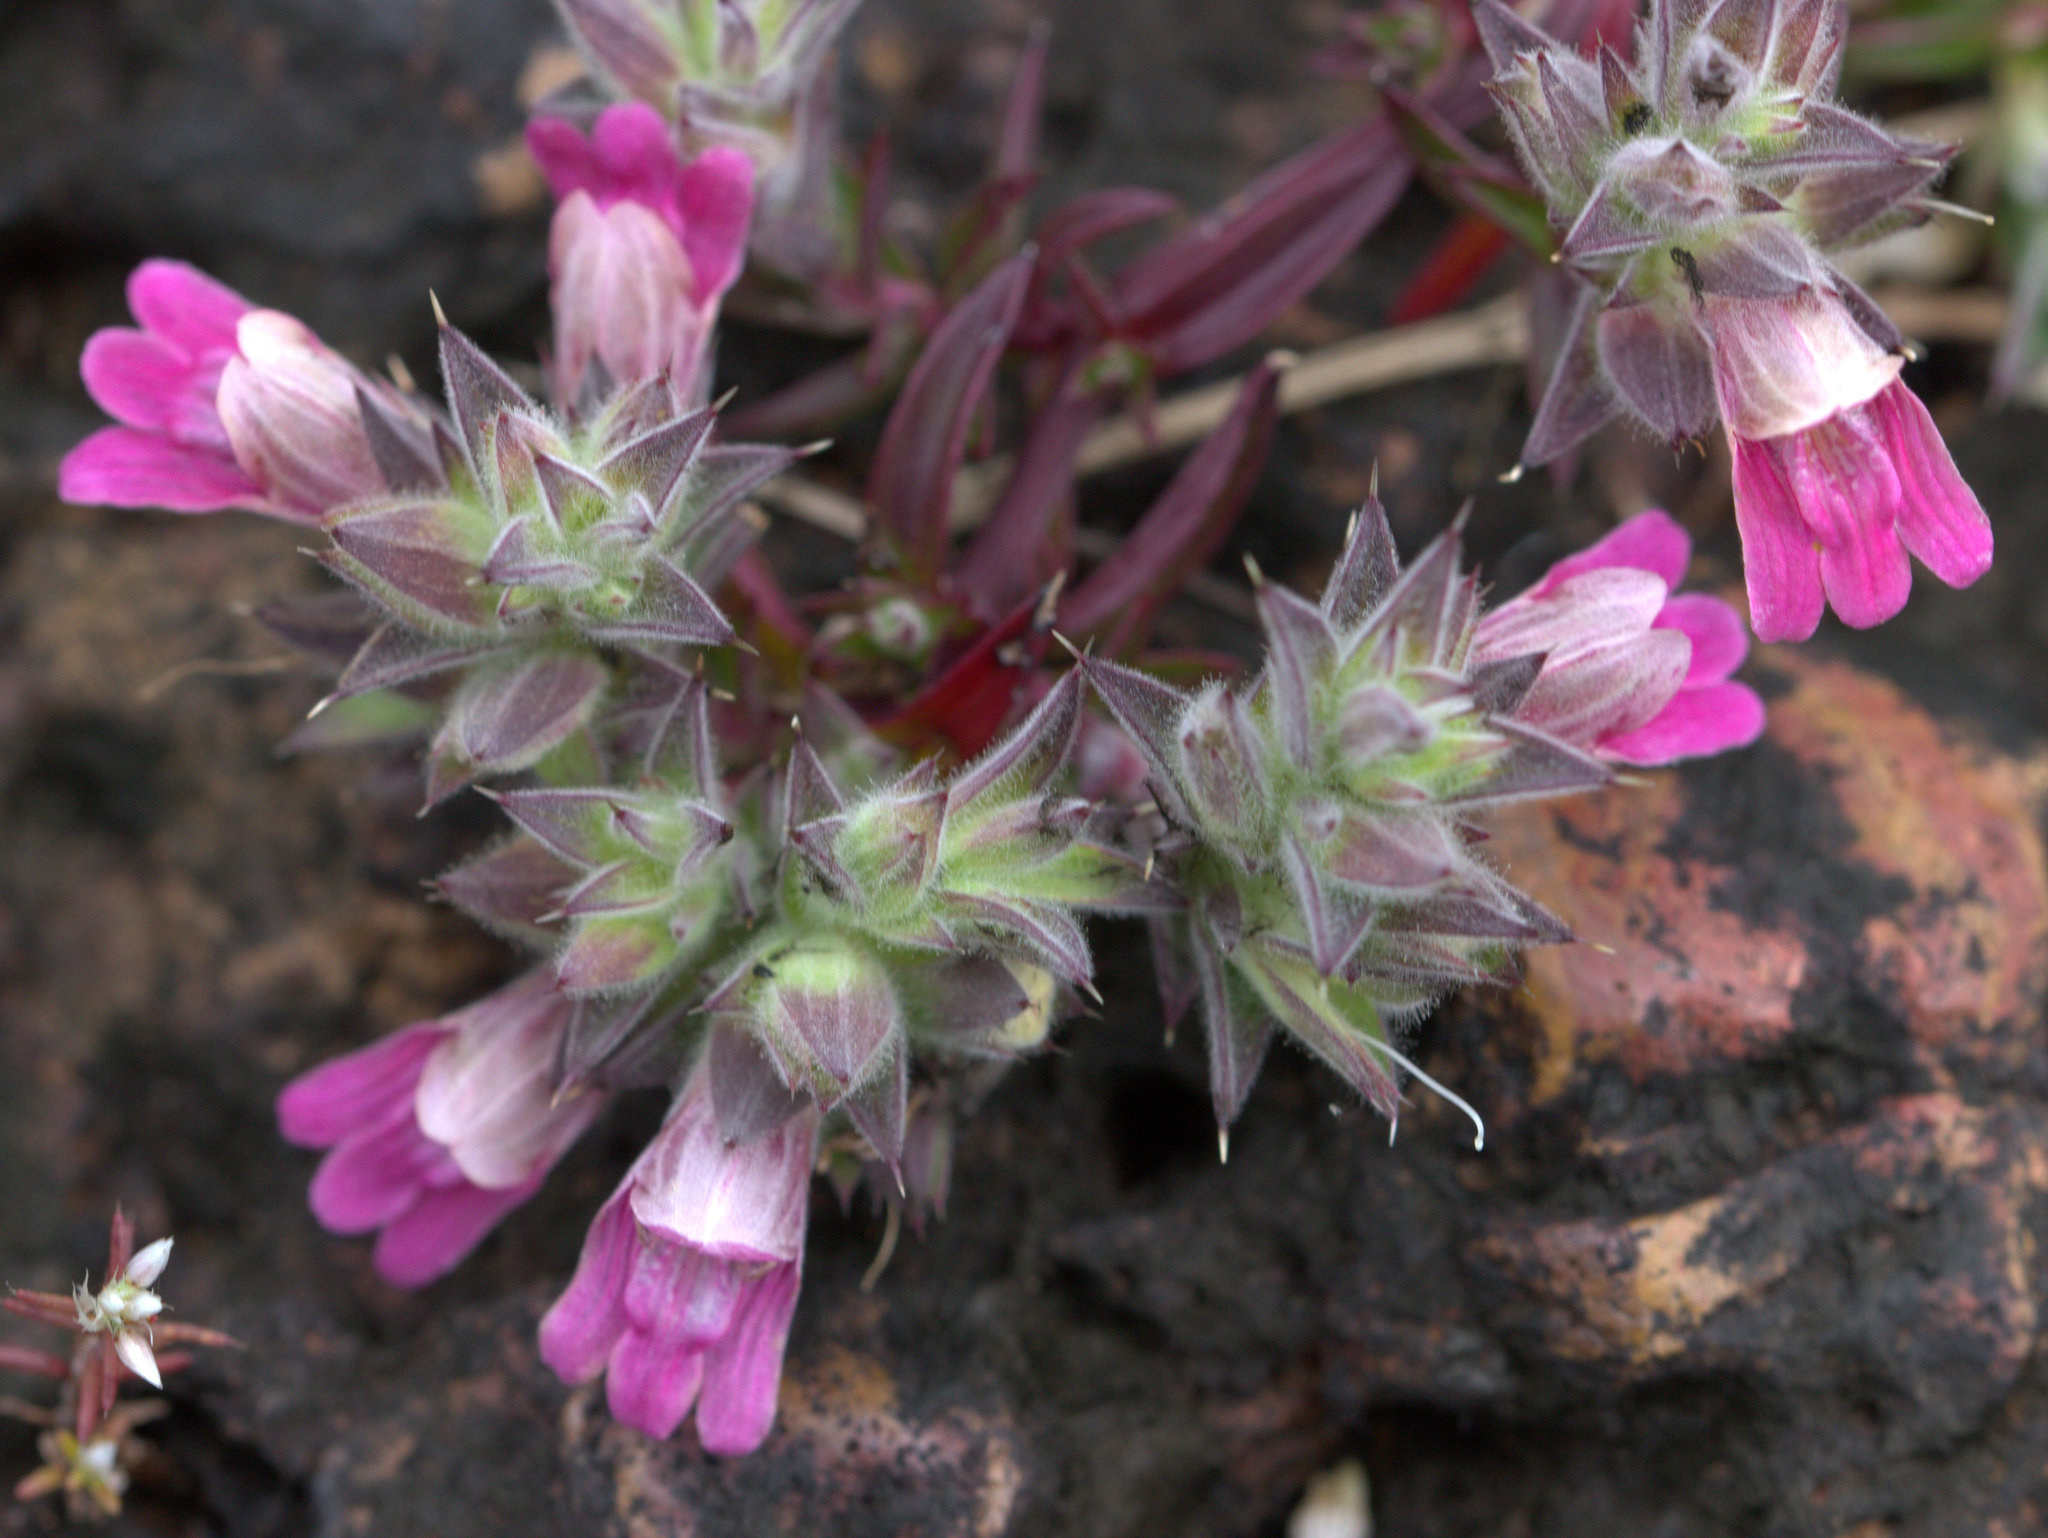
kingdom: Plantae
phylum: Tracheophyta
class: Magnoliopsida
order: Lamiales
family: Acanthaceae
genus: Lepidagathis
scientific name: Lepidagathis keralensis
